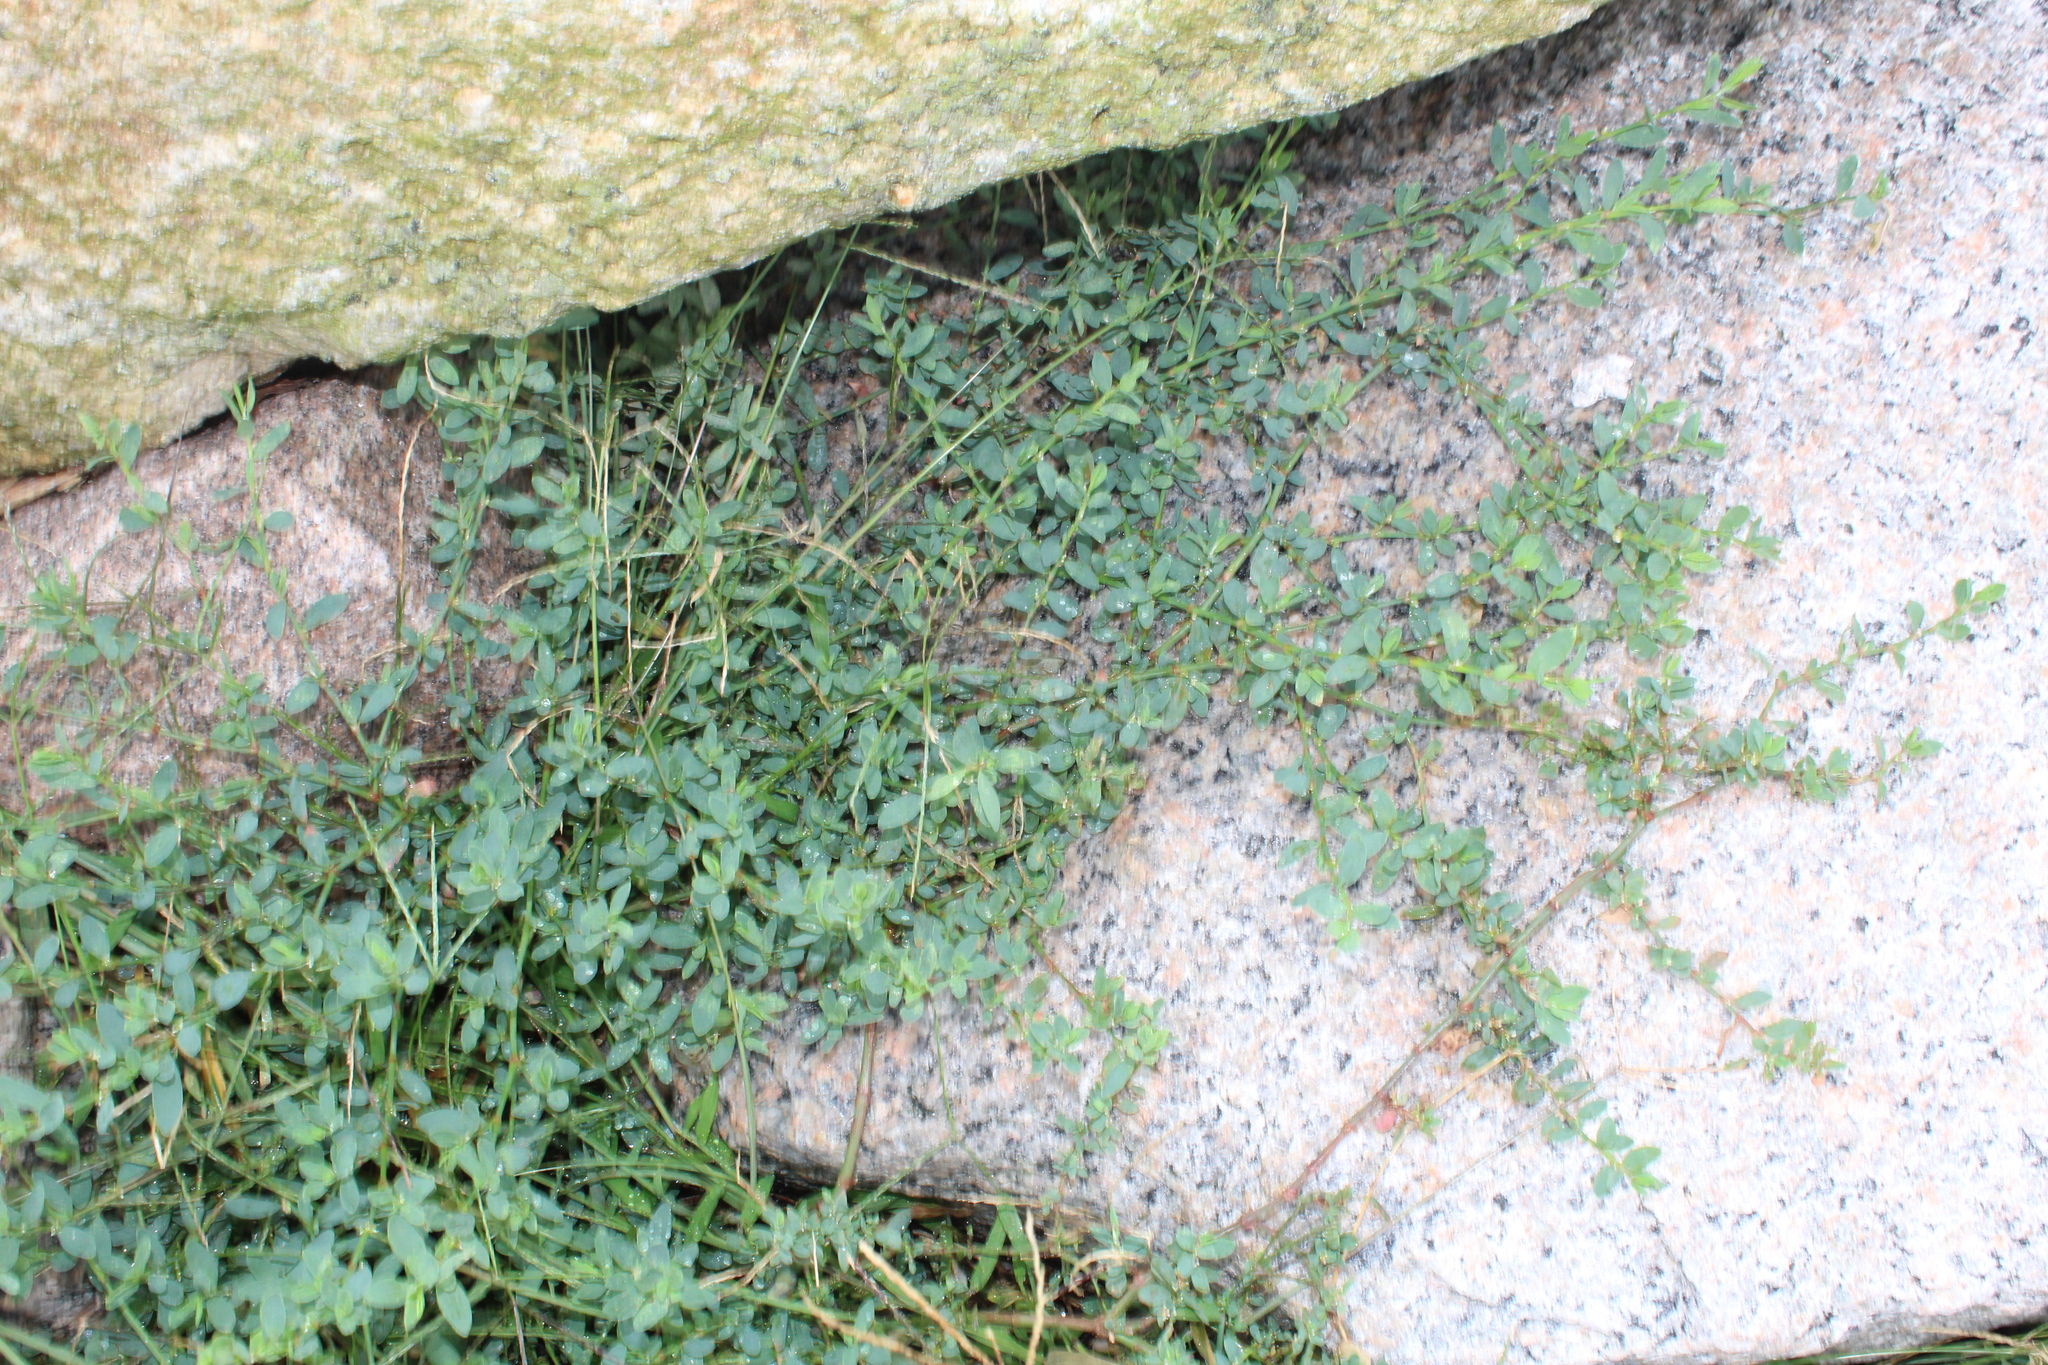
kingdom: Plantae
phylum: Tracheophyta
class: Magnoliopsida
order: Caryophyllales
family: Polygonaceae
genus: Polygonum
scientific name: Polygonum aviculare
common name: Prostrate knotweed
